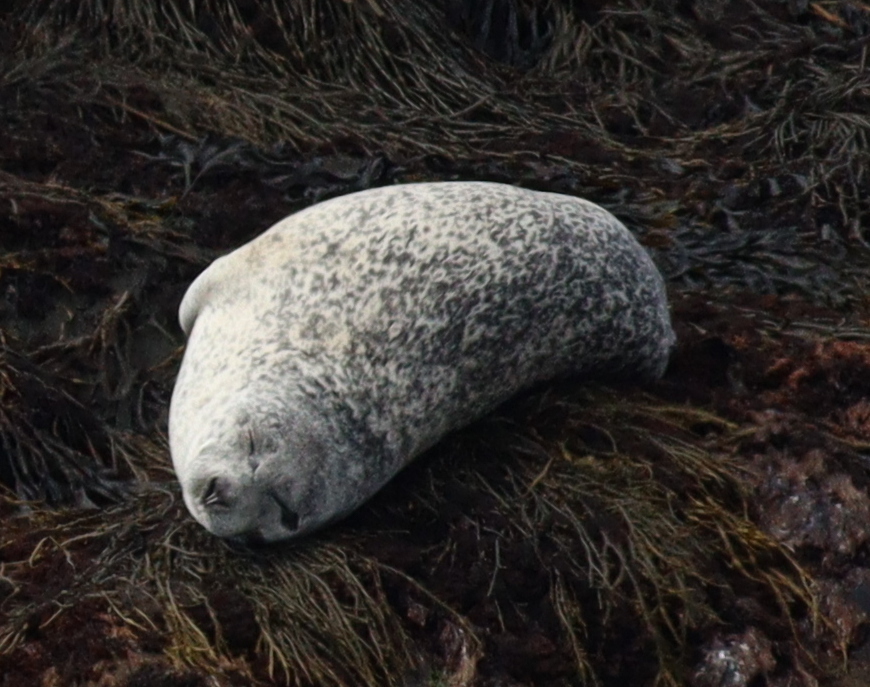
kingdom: Animalia
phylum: Chordata
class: Mammalia
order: Carnivora
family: Phocidae
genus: Phoca
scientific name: Phoca vitulina
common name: Harbor seal
